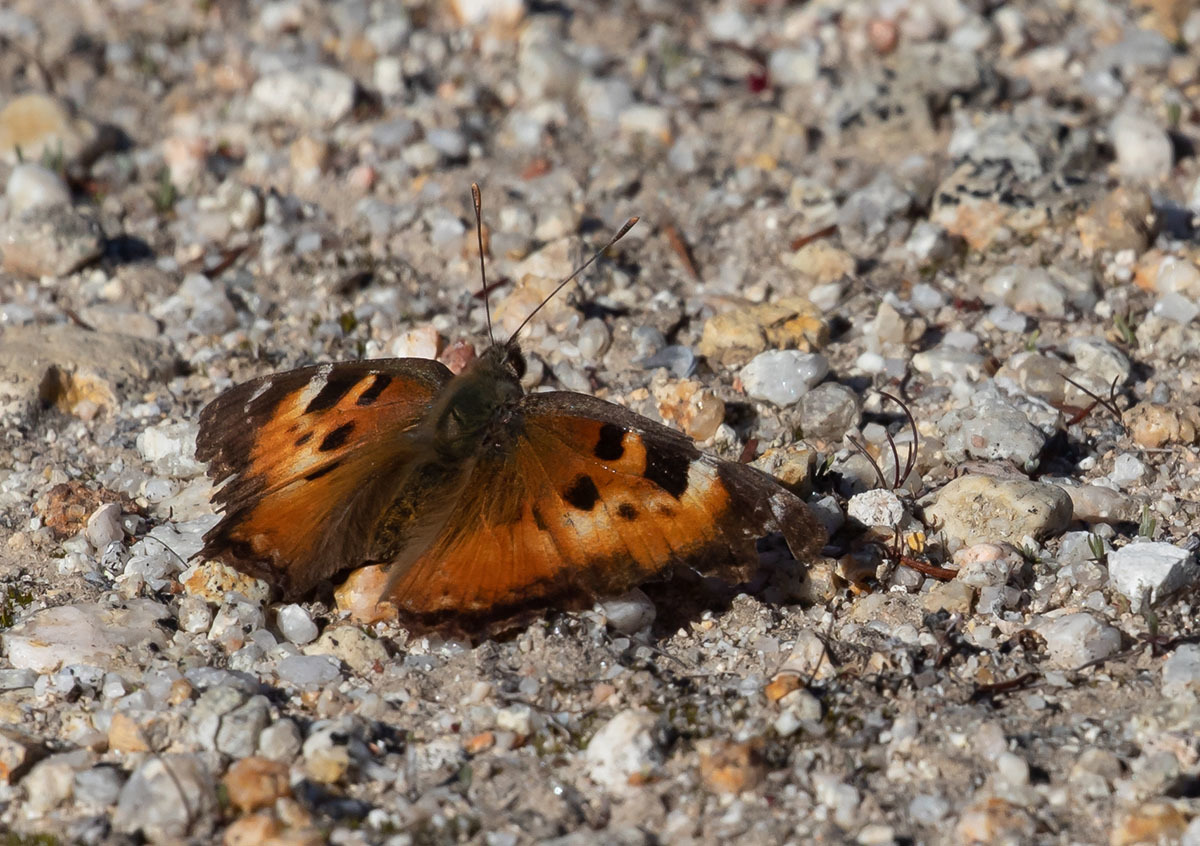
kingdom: Animalia
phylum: Arthropoda
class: Insecta
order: Lepidoptera
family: Nymphalidae
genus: Nymphalis
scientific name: Nymphalis californica
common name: California tortoiseshell
